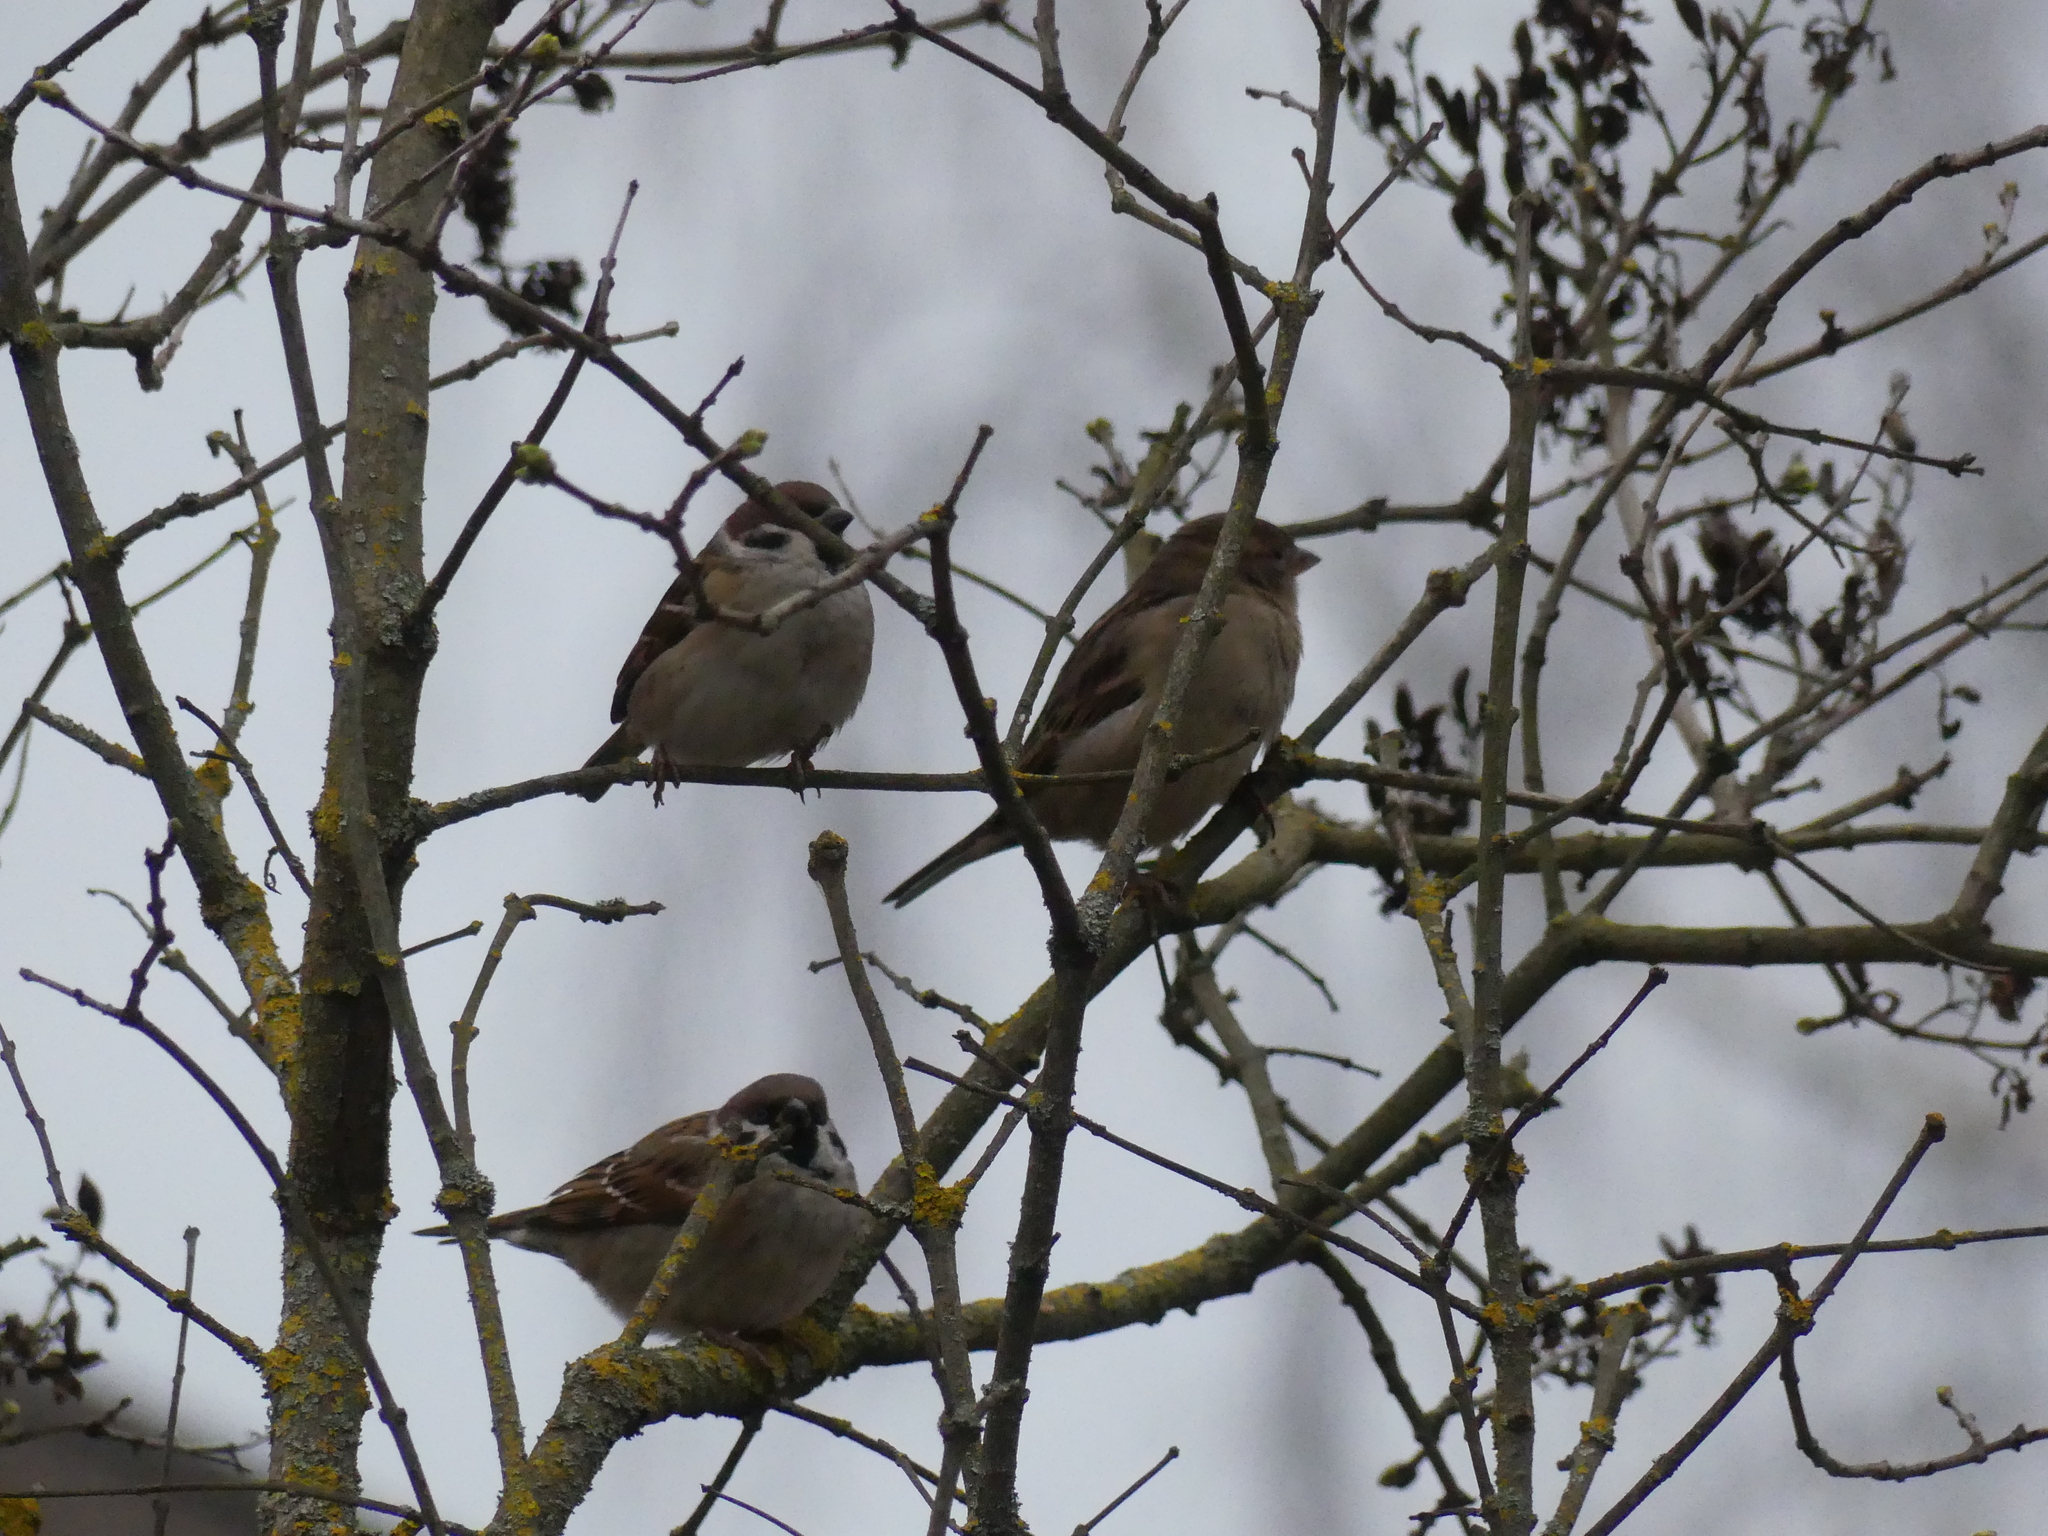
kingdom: Animalia
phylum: Chordata
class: Aves
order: Passeriformes
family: Passeridae
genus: Passer
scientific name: Passer domesticus
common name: House sparrow
